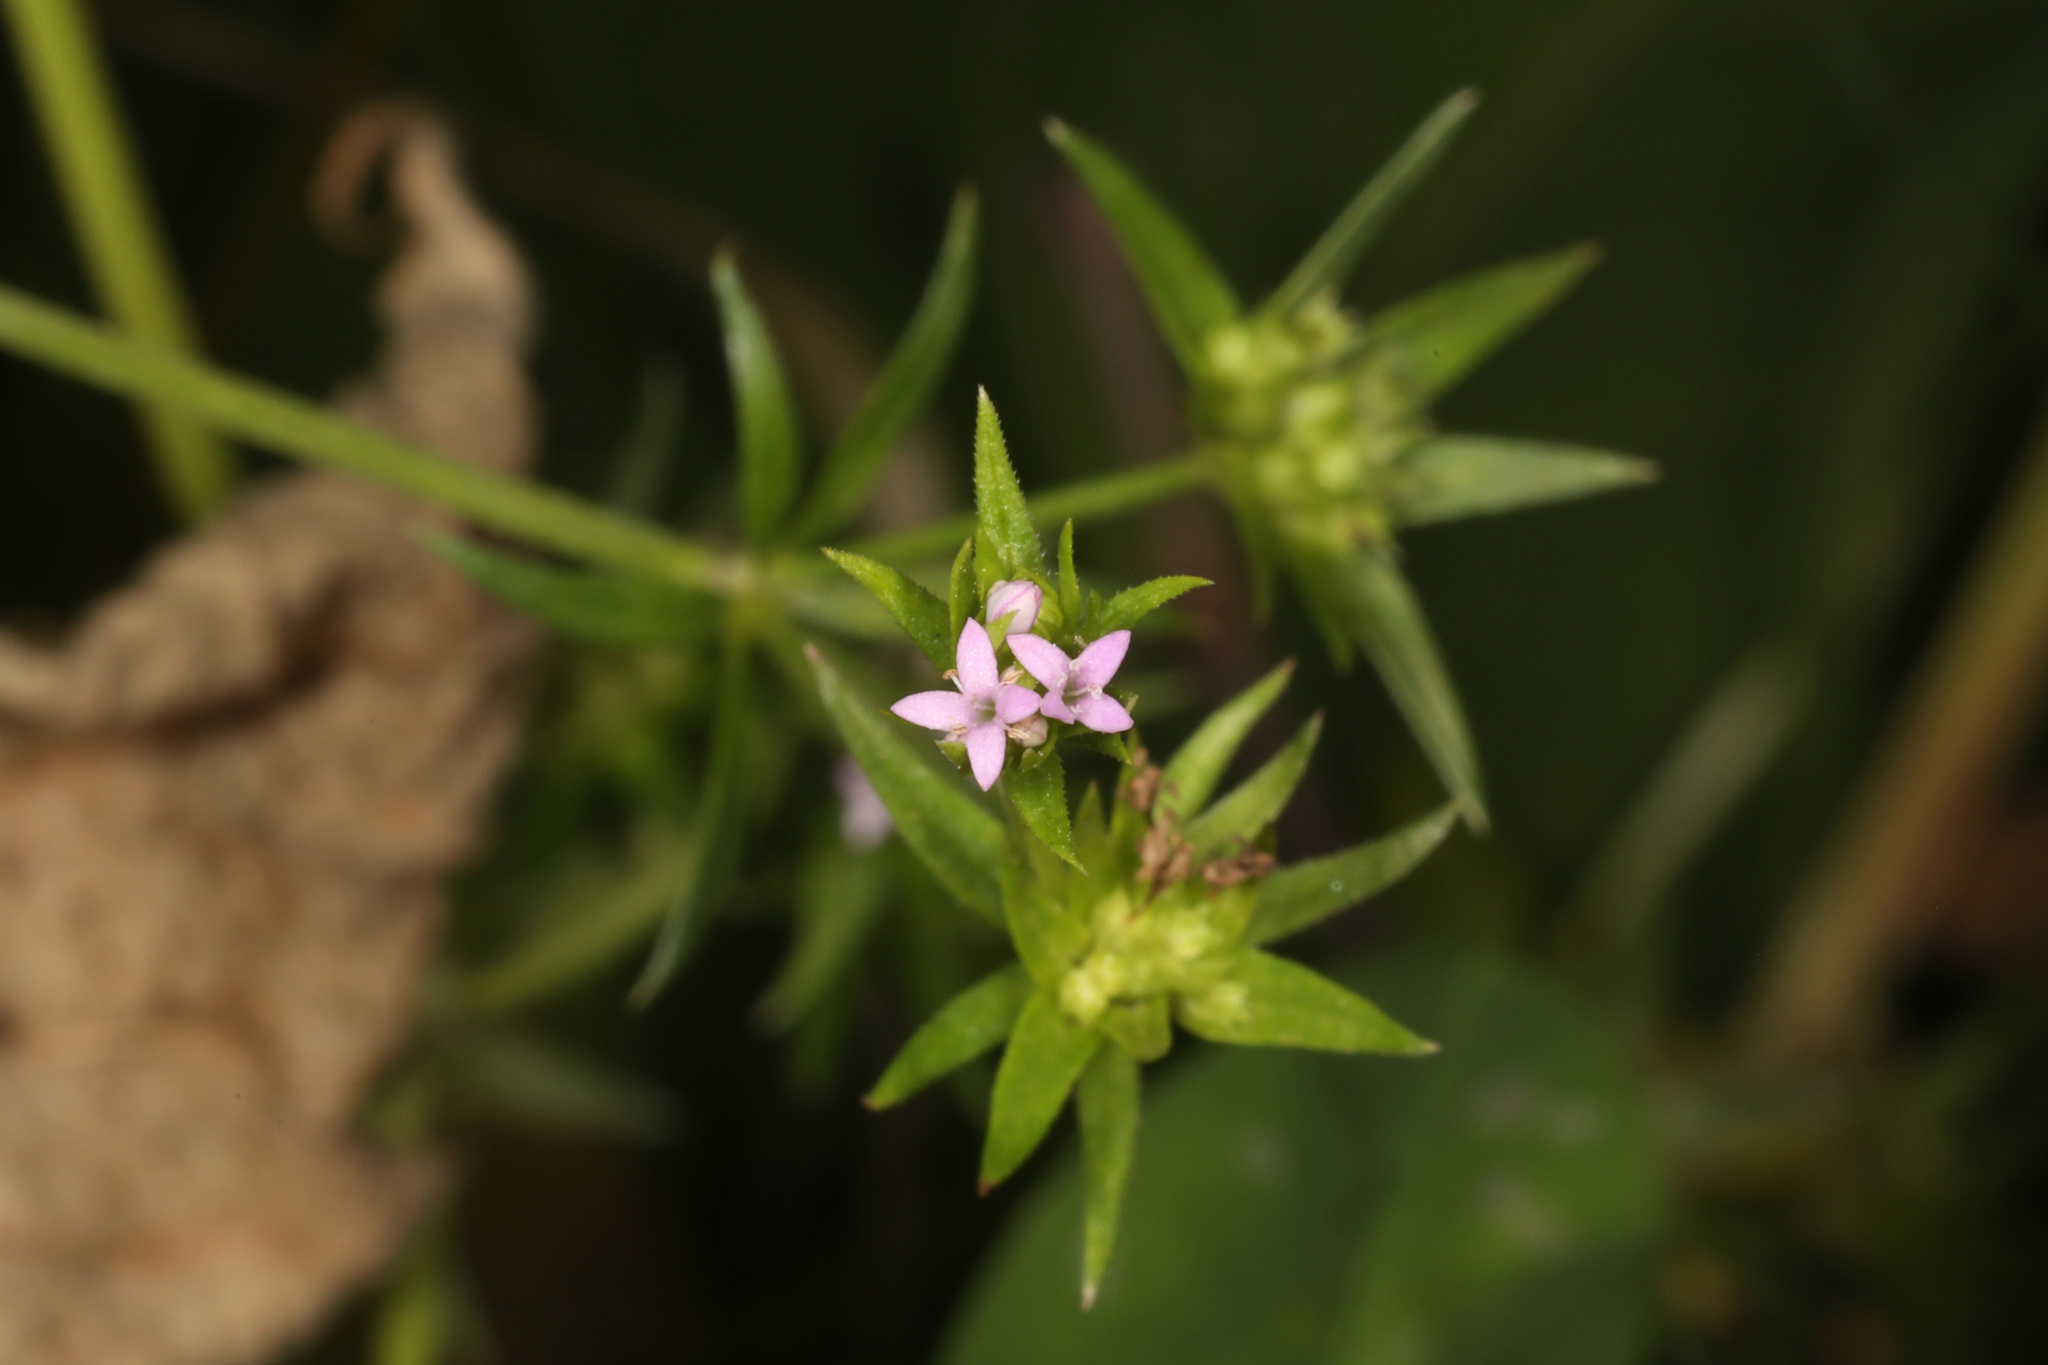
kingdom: Plantae
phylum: Tracheophyta
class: Magnoliopsida
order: Gentianales
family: Rubiaceae
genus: Sherardia
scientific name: Sherardia arvensis
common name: Field madder
